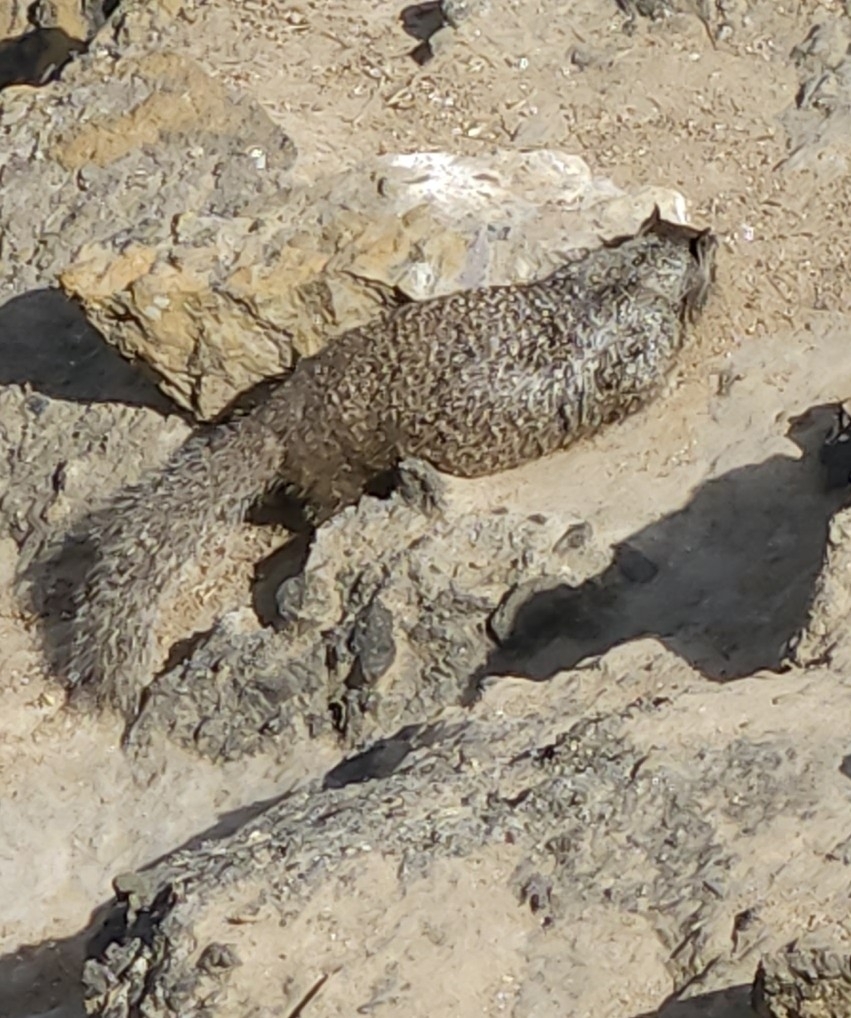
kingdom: Animalia
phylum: Chordata
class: Mammalia
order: Rodentia
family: Sciuridae
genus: Otospermophilus
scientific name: Otospermophilus beecheyi
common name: California ground squirrel
